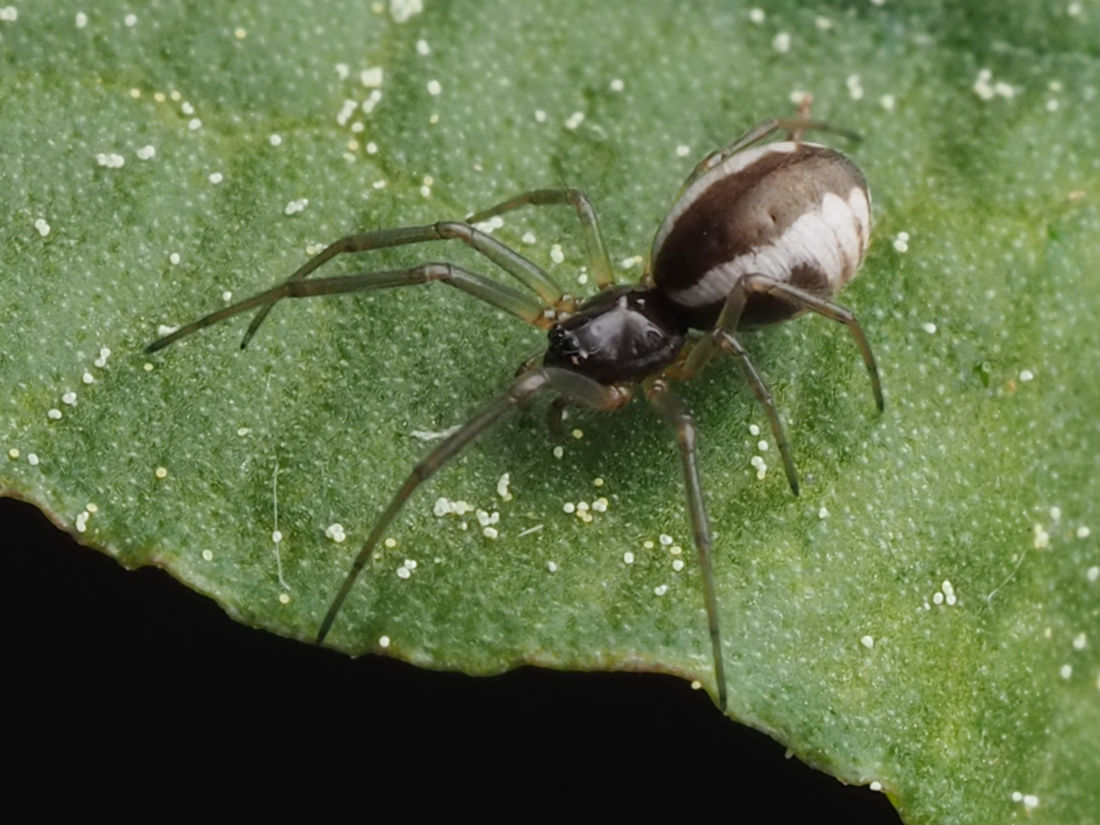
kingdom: Animalia
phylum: Arthropoda
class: Arachnida
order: Araneae
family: Linyphiidae
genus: Frontinella
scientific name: Frontinella pyramitela
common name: Bowl-and-doily spider
